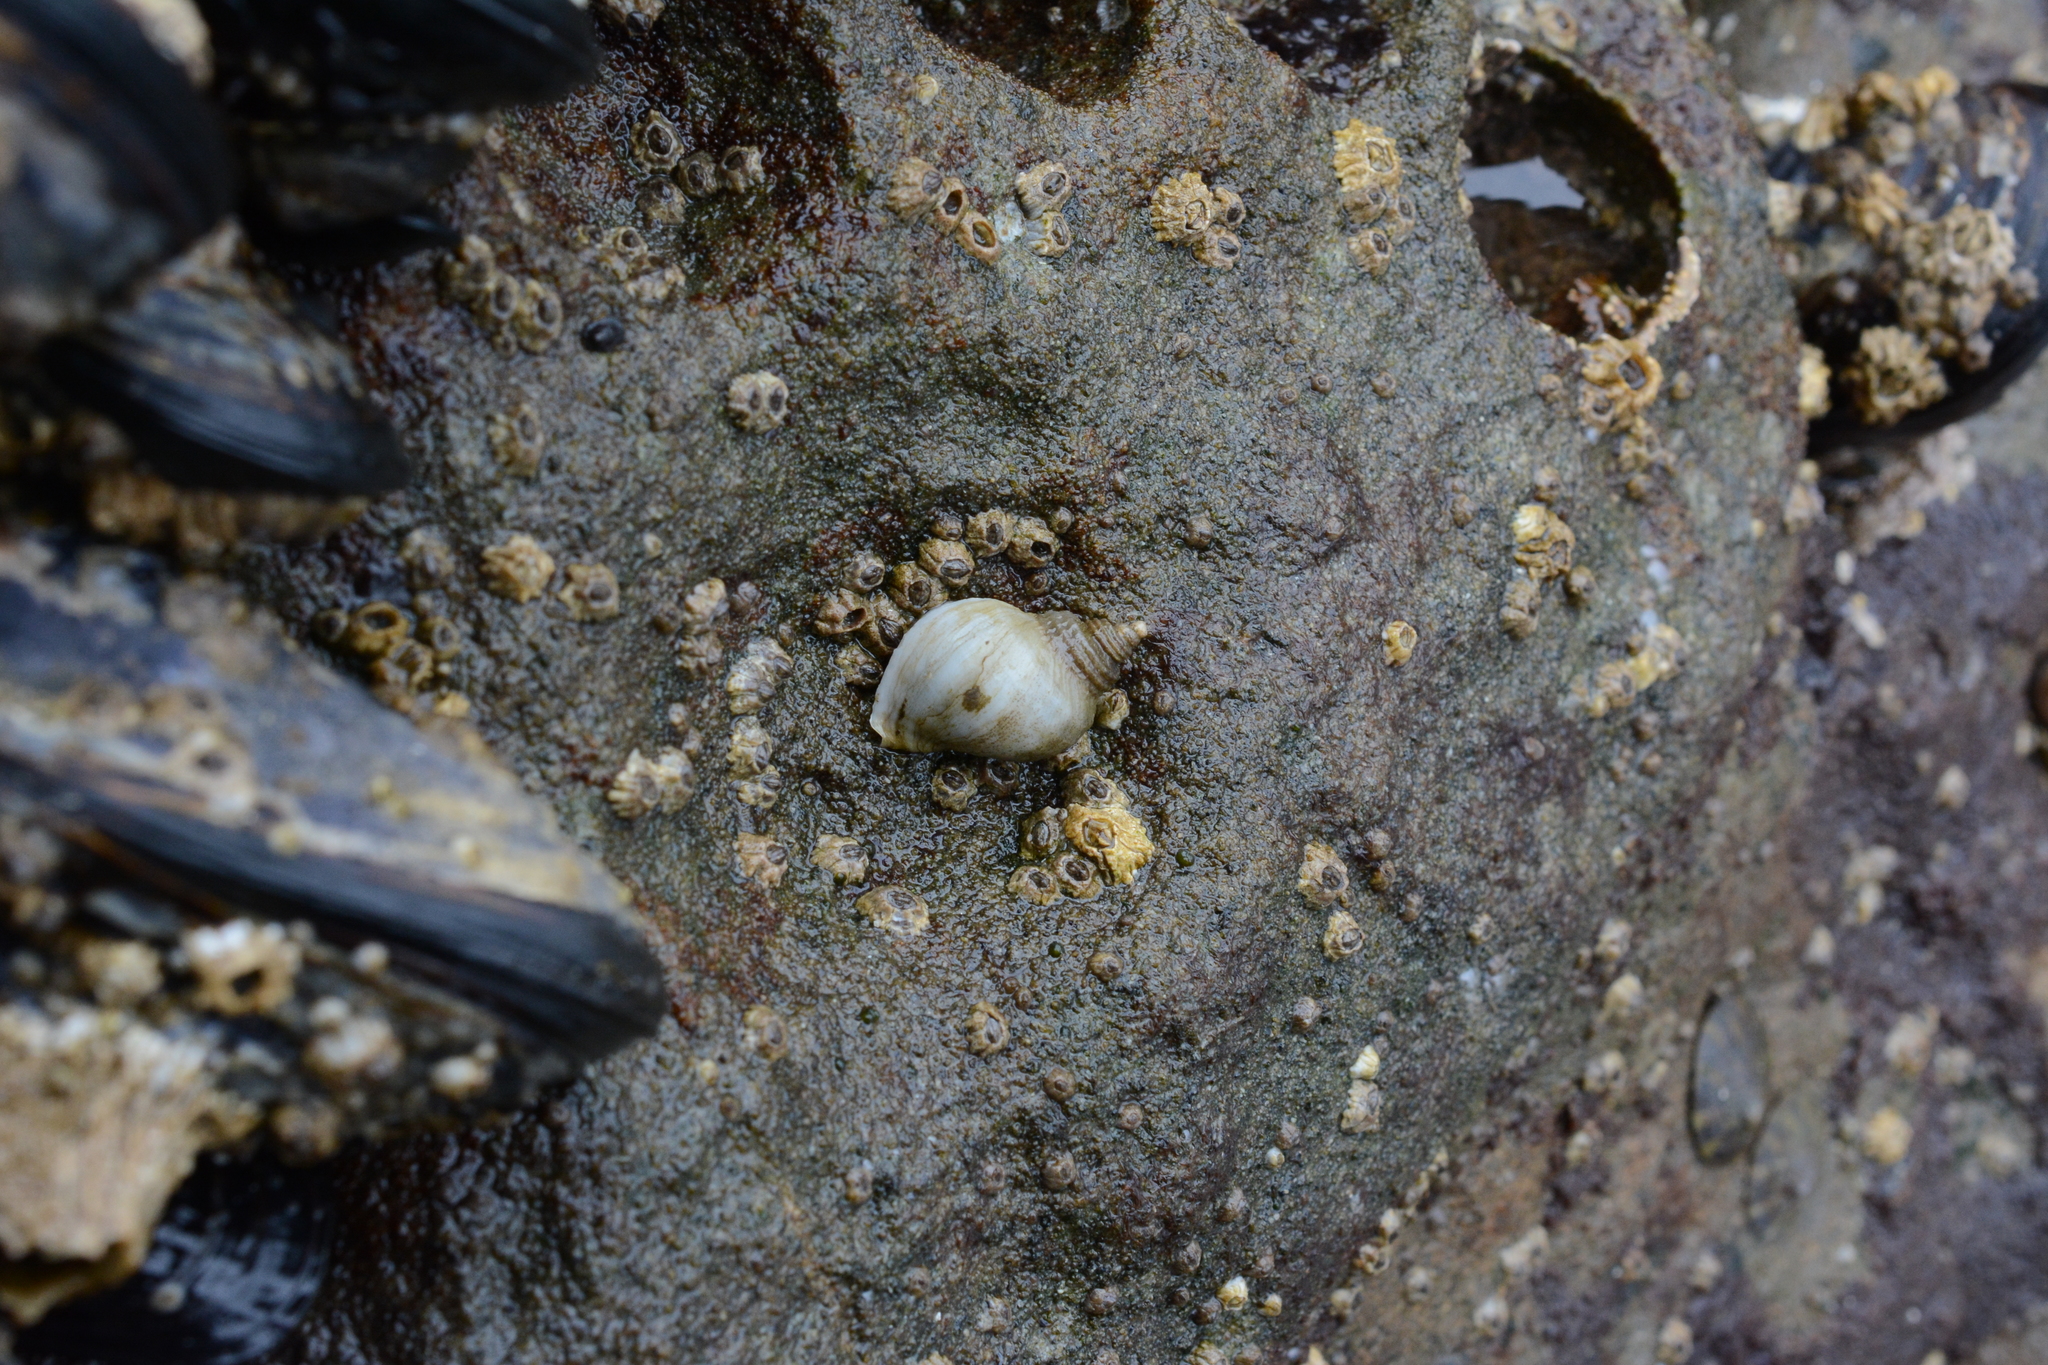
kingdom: Animalia
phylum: Mollusca
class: Gastropoda
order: Neogastropoda
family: Muricidae
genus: Nucella
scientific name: Nucella ostrina
